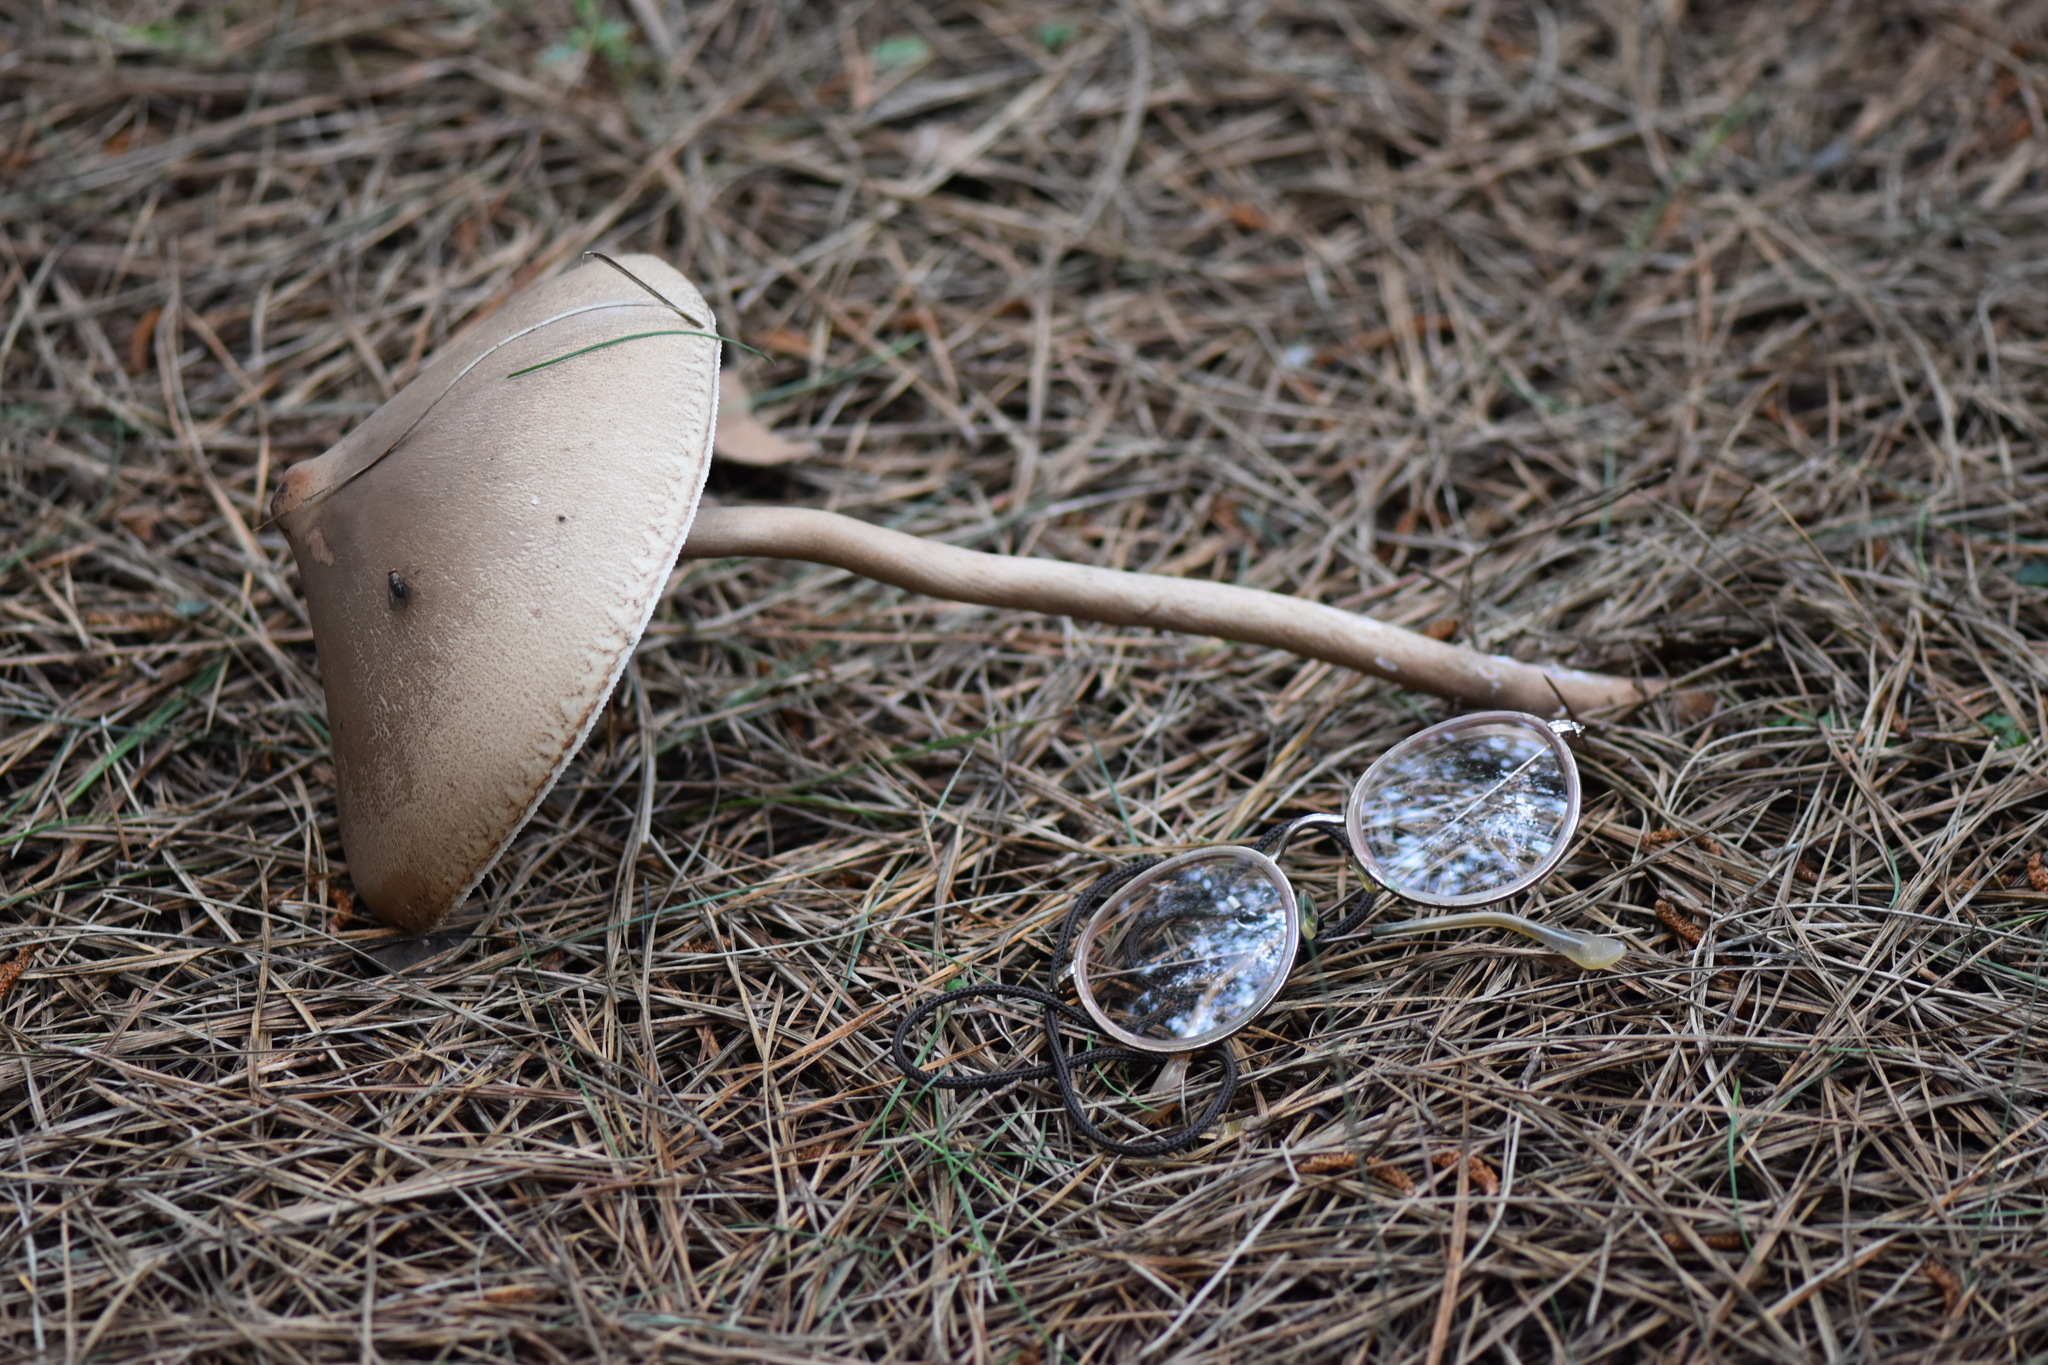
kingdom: Fungi
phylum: Basidiomycota
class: Agaricomycetes
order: Agaricales
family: Agaricaceae
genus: Macrolepiota
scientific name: Macrolepiota capelariae
